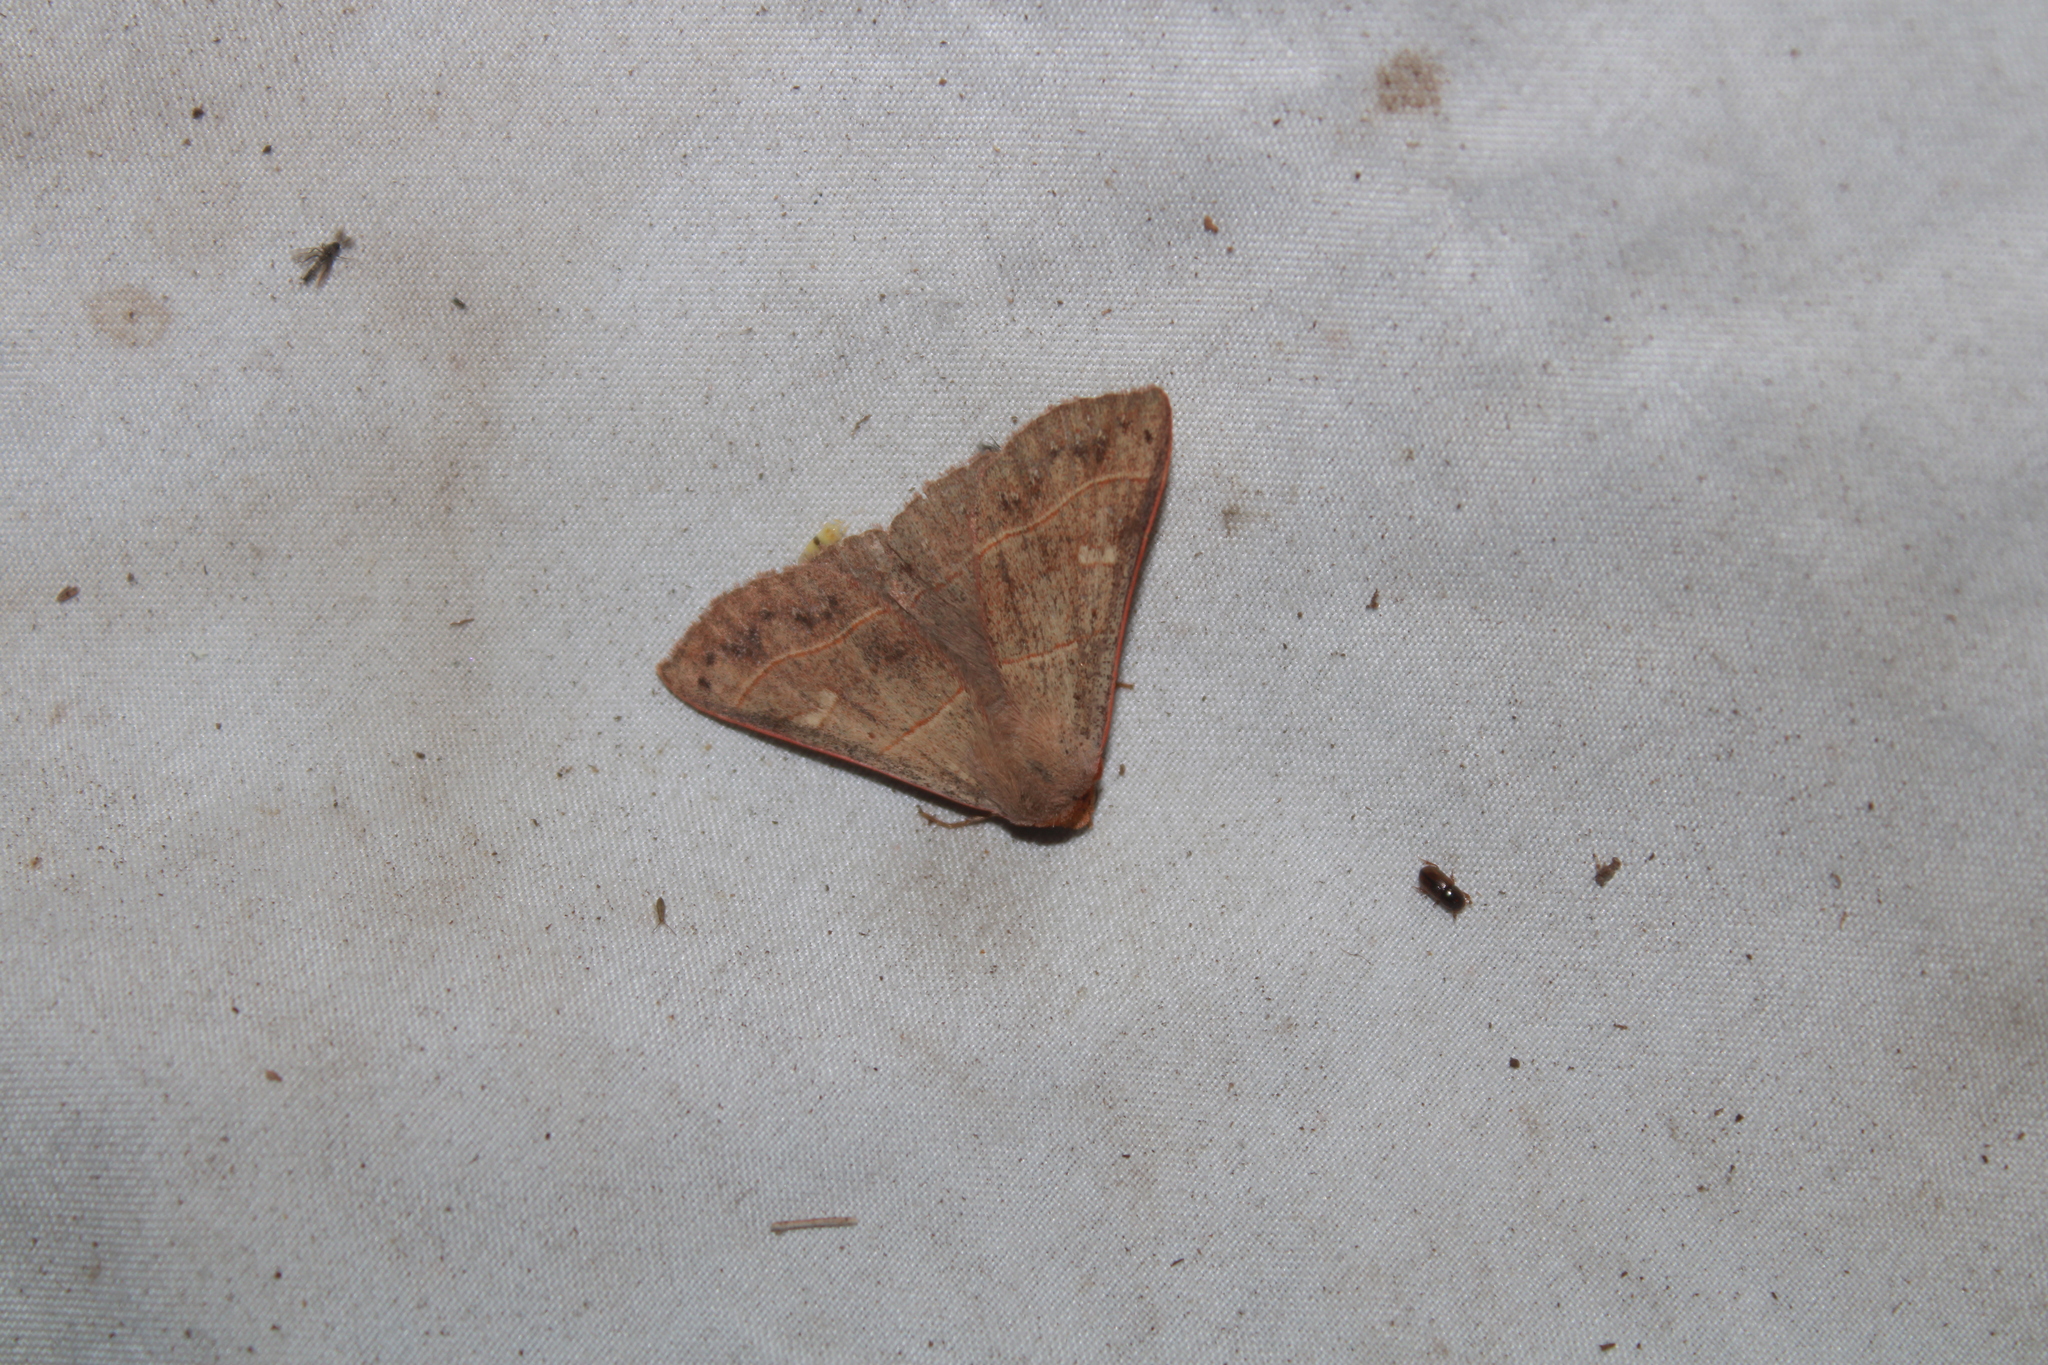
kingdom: Animalia
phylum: Arthropoda
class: Insecta
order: Lepidoptera
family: Erebidae
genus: Panopoda
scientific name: Panopoda rufimargo
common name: Red-lined panopoda moth
